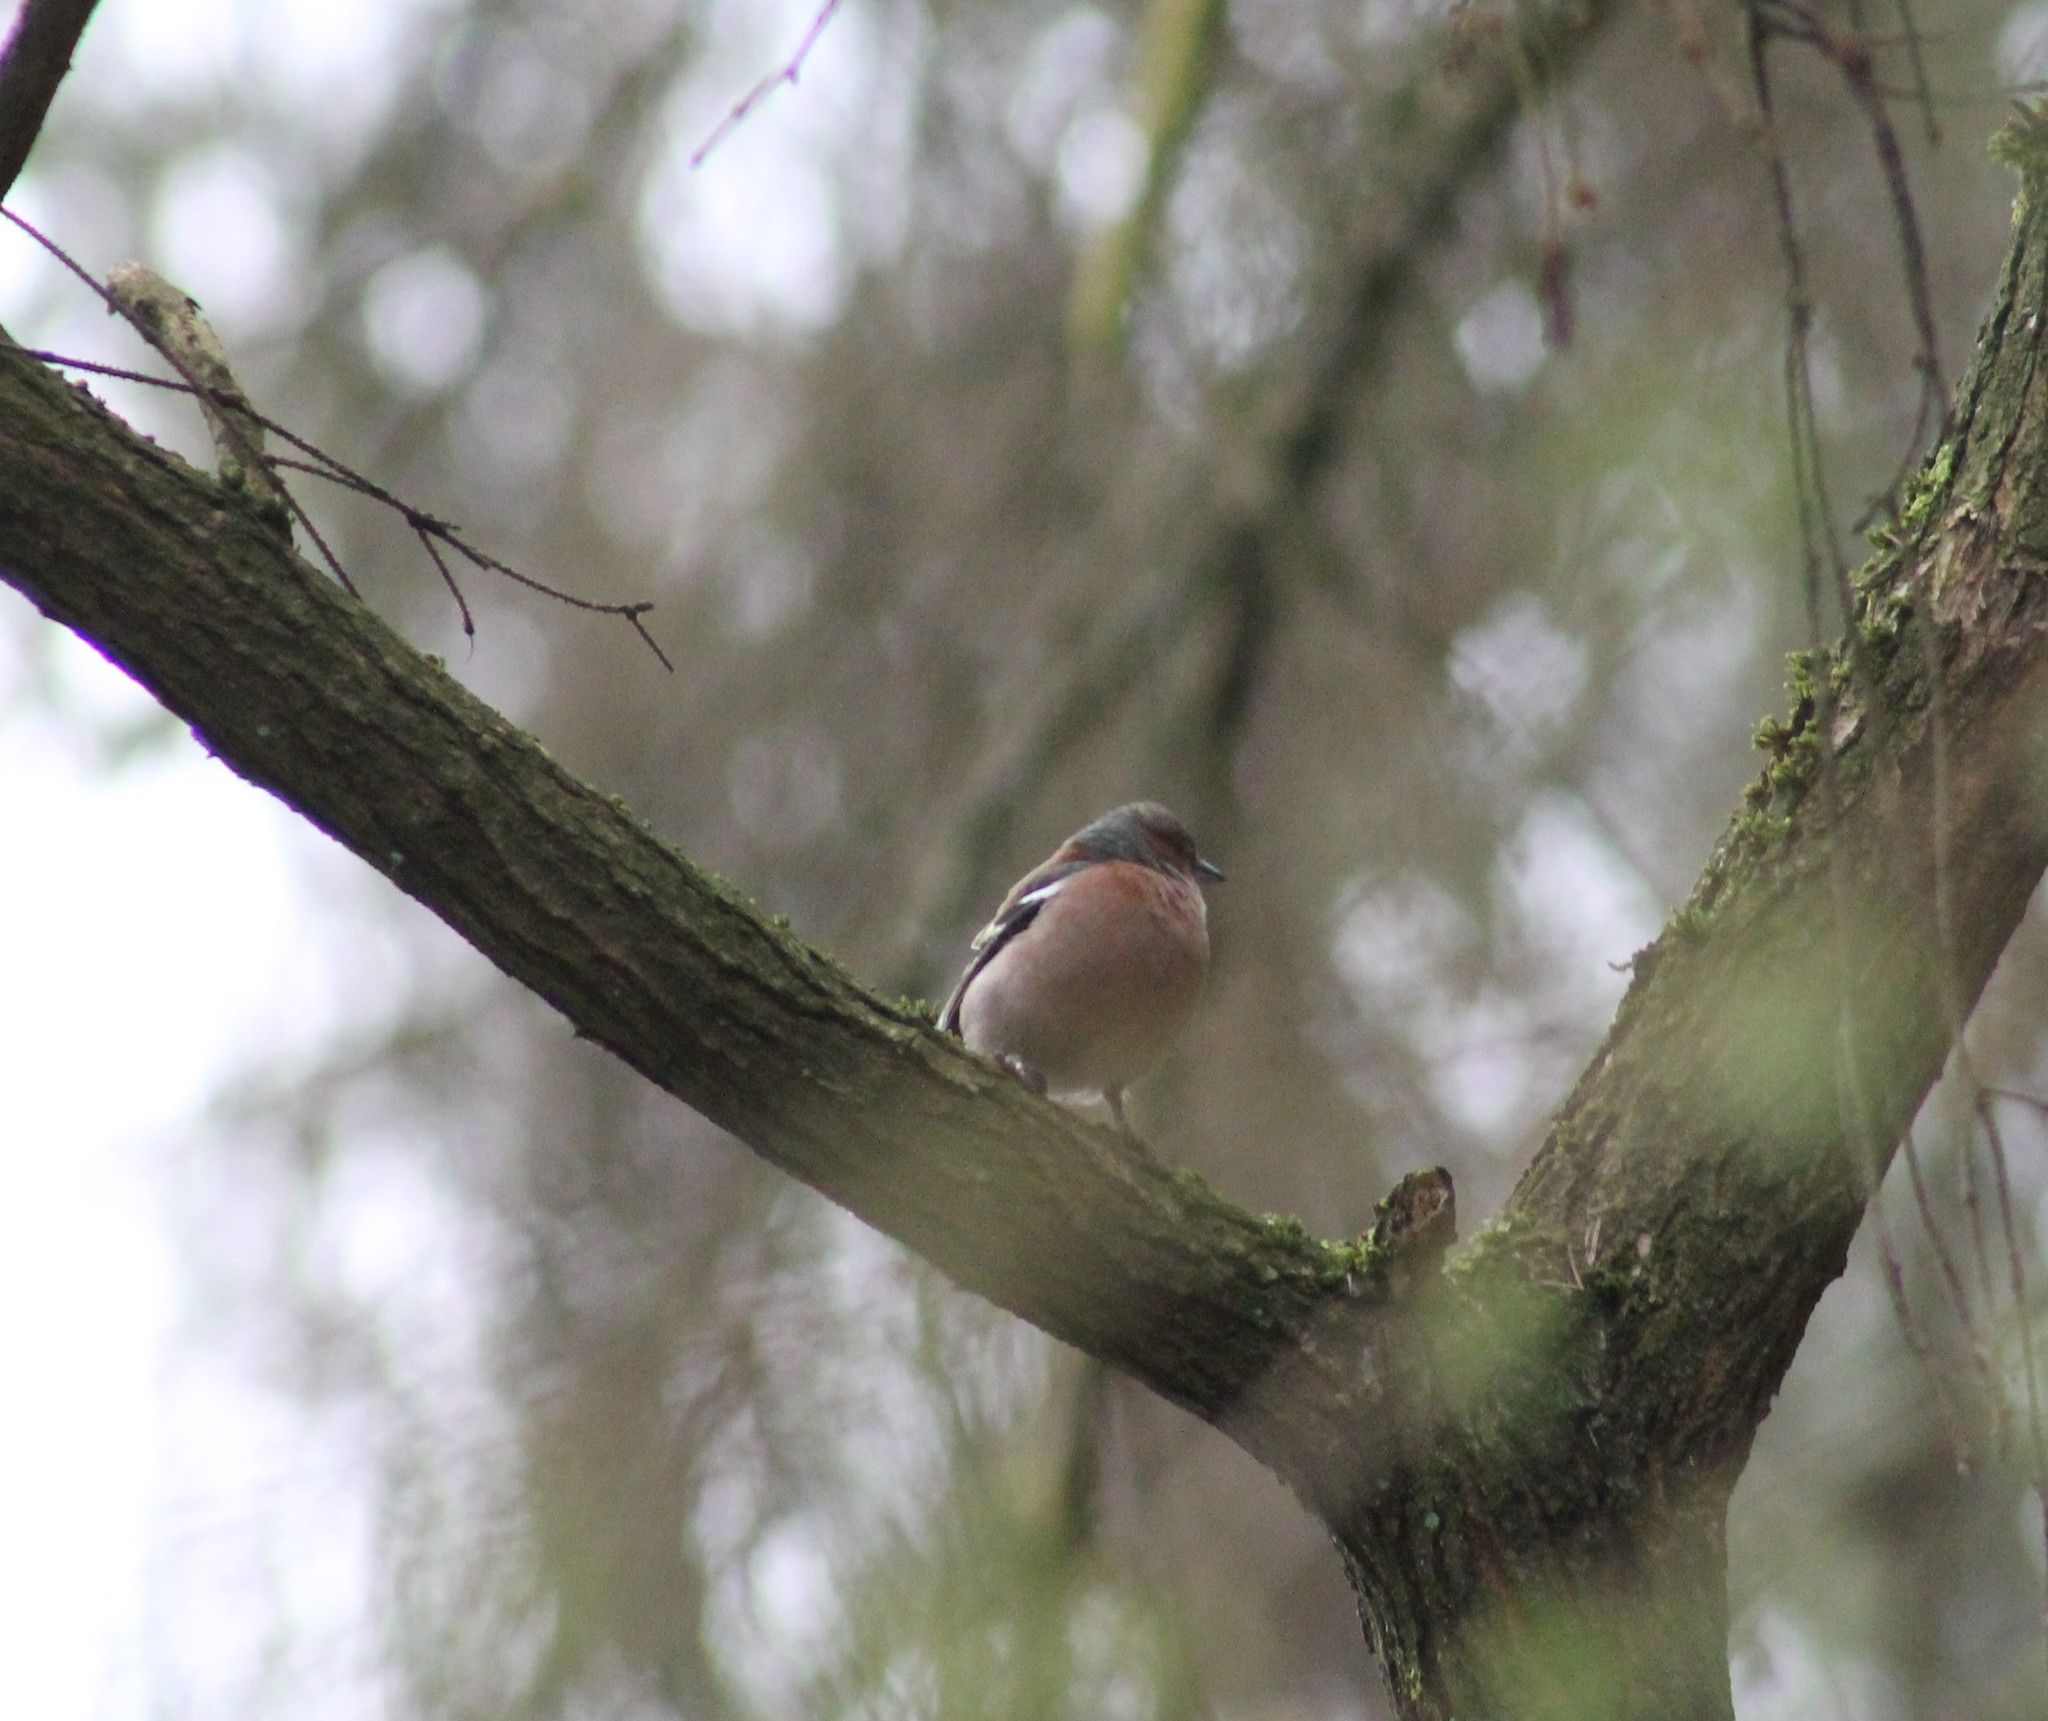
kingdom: Animalia
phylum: Chordata
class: Aves
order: Passeriformes
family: Fringillidae
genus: Fringilla
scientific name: Fringilla coelebs
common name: Common chaffinch
